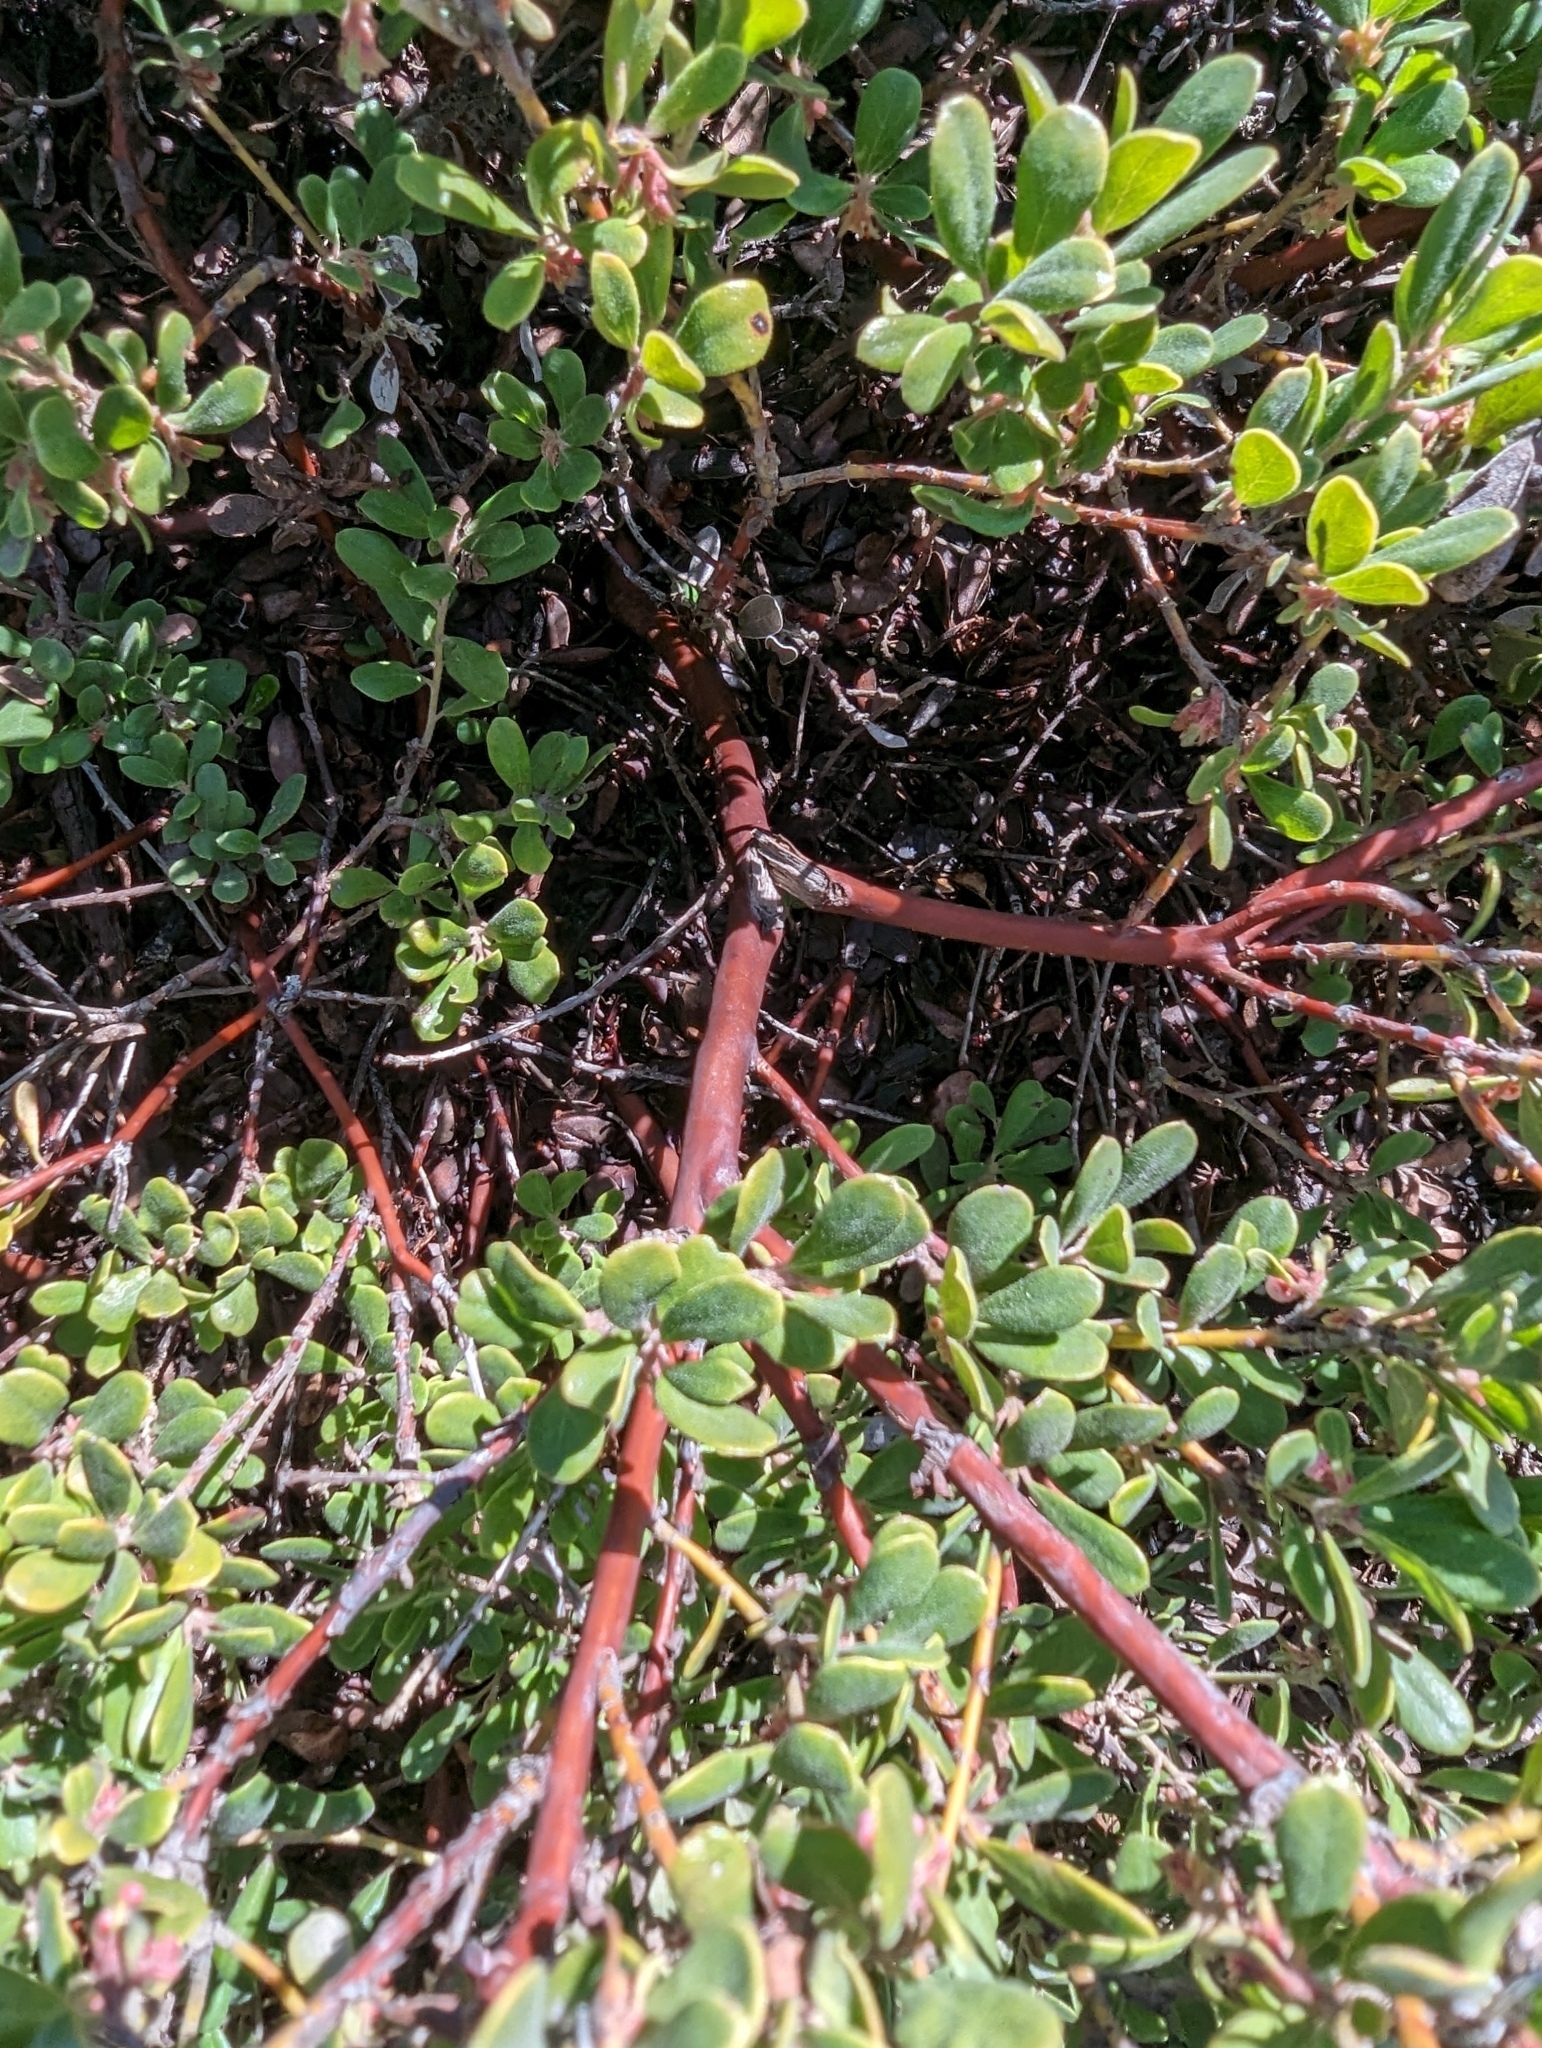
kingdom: Plantae
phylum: Tracheophyta
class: Magnoliopsida
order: Ericales
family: Ericaceae
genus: Arctostaphylos
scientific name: Arctostaphylos pumila
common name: Sandmat manzanita
